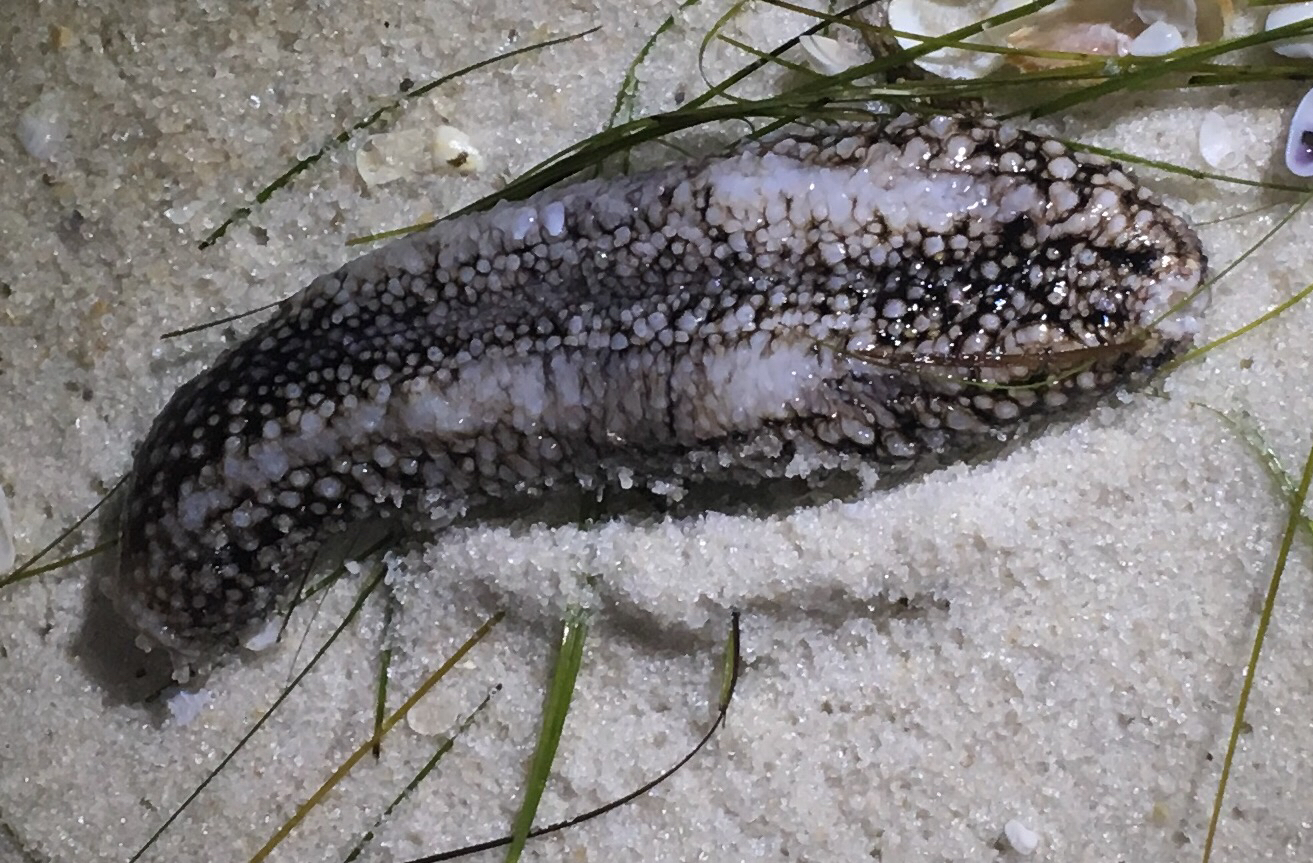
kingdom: Animalia
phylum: Echinodermata
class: Holothuroidea
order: Holothuriida
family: Holothuriidae
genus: Holothuria
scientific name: Holothuria princeps
